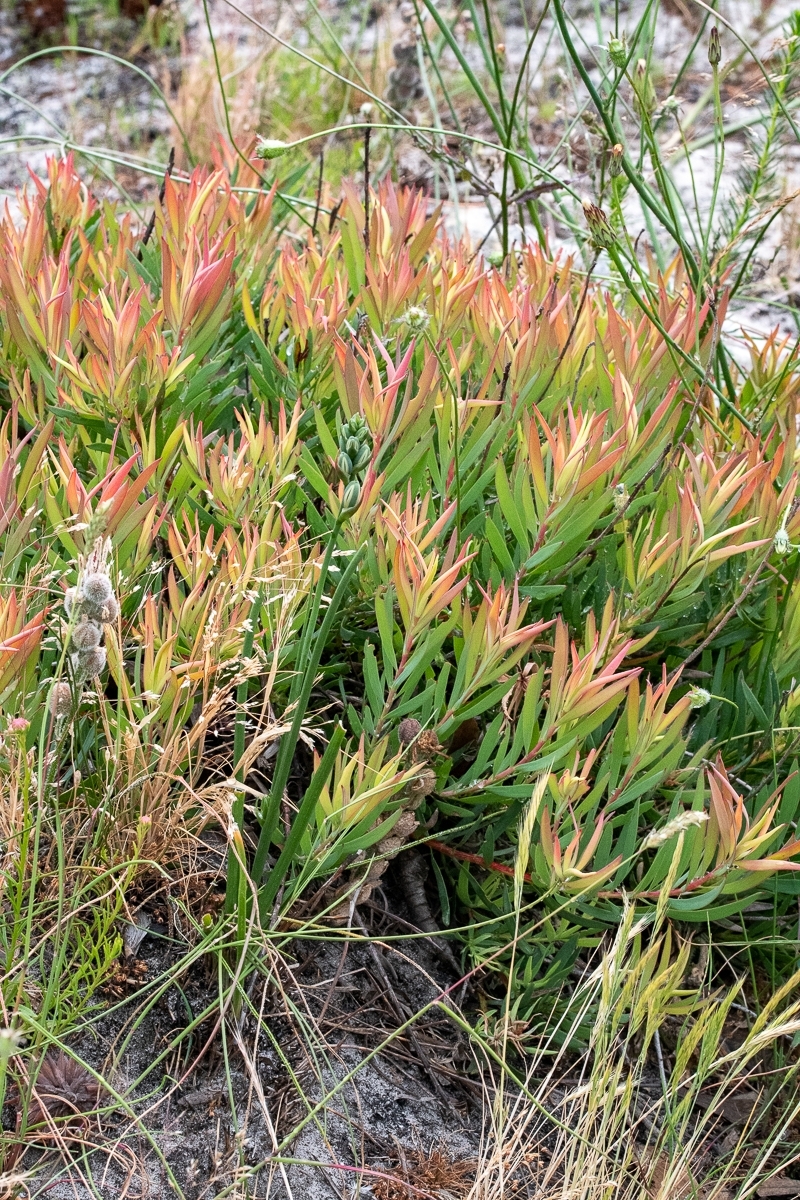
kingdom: Plantae
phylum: Tracheophyta
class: Magnoliopsida
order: Proteales
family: Proteaceae
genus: Leucadendron
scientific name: Leucadendron salignum
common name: Common sunshine conebush
